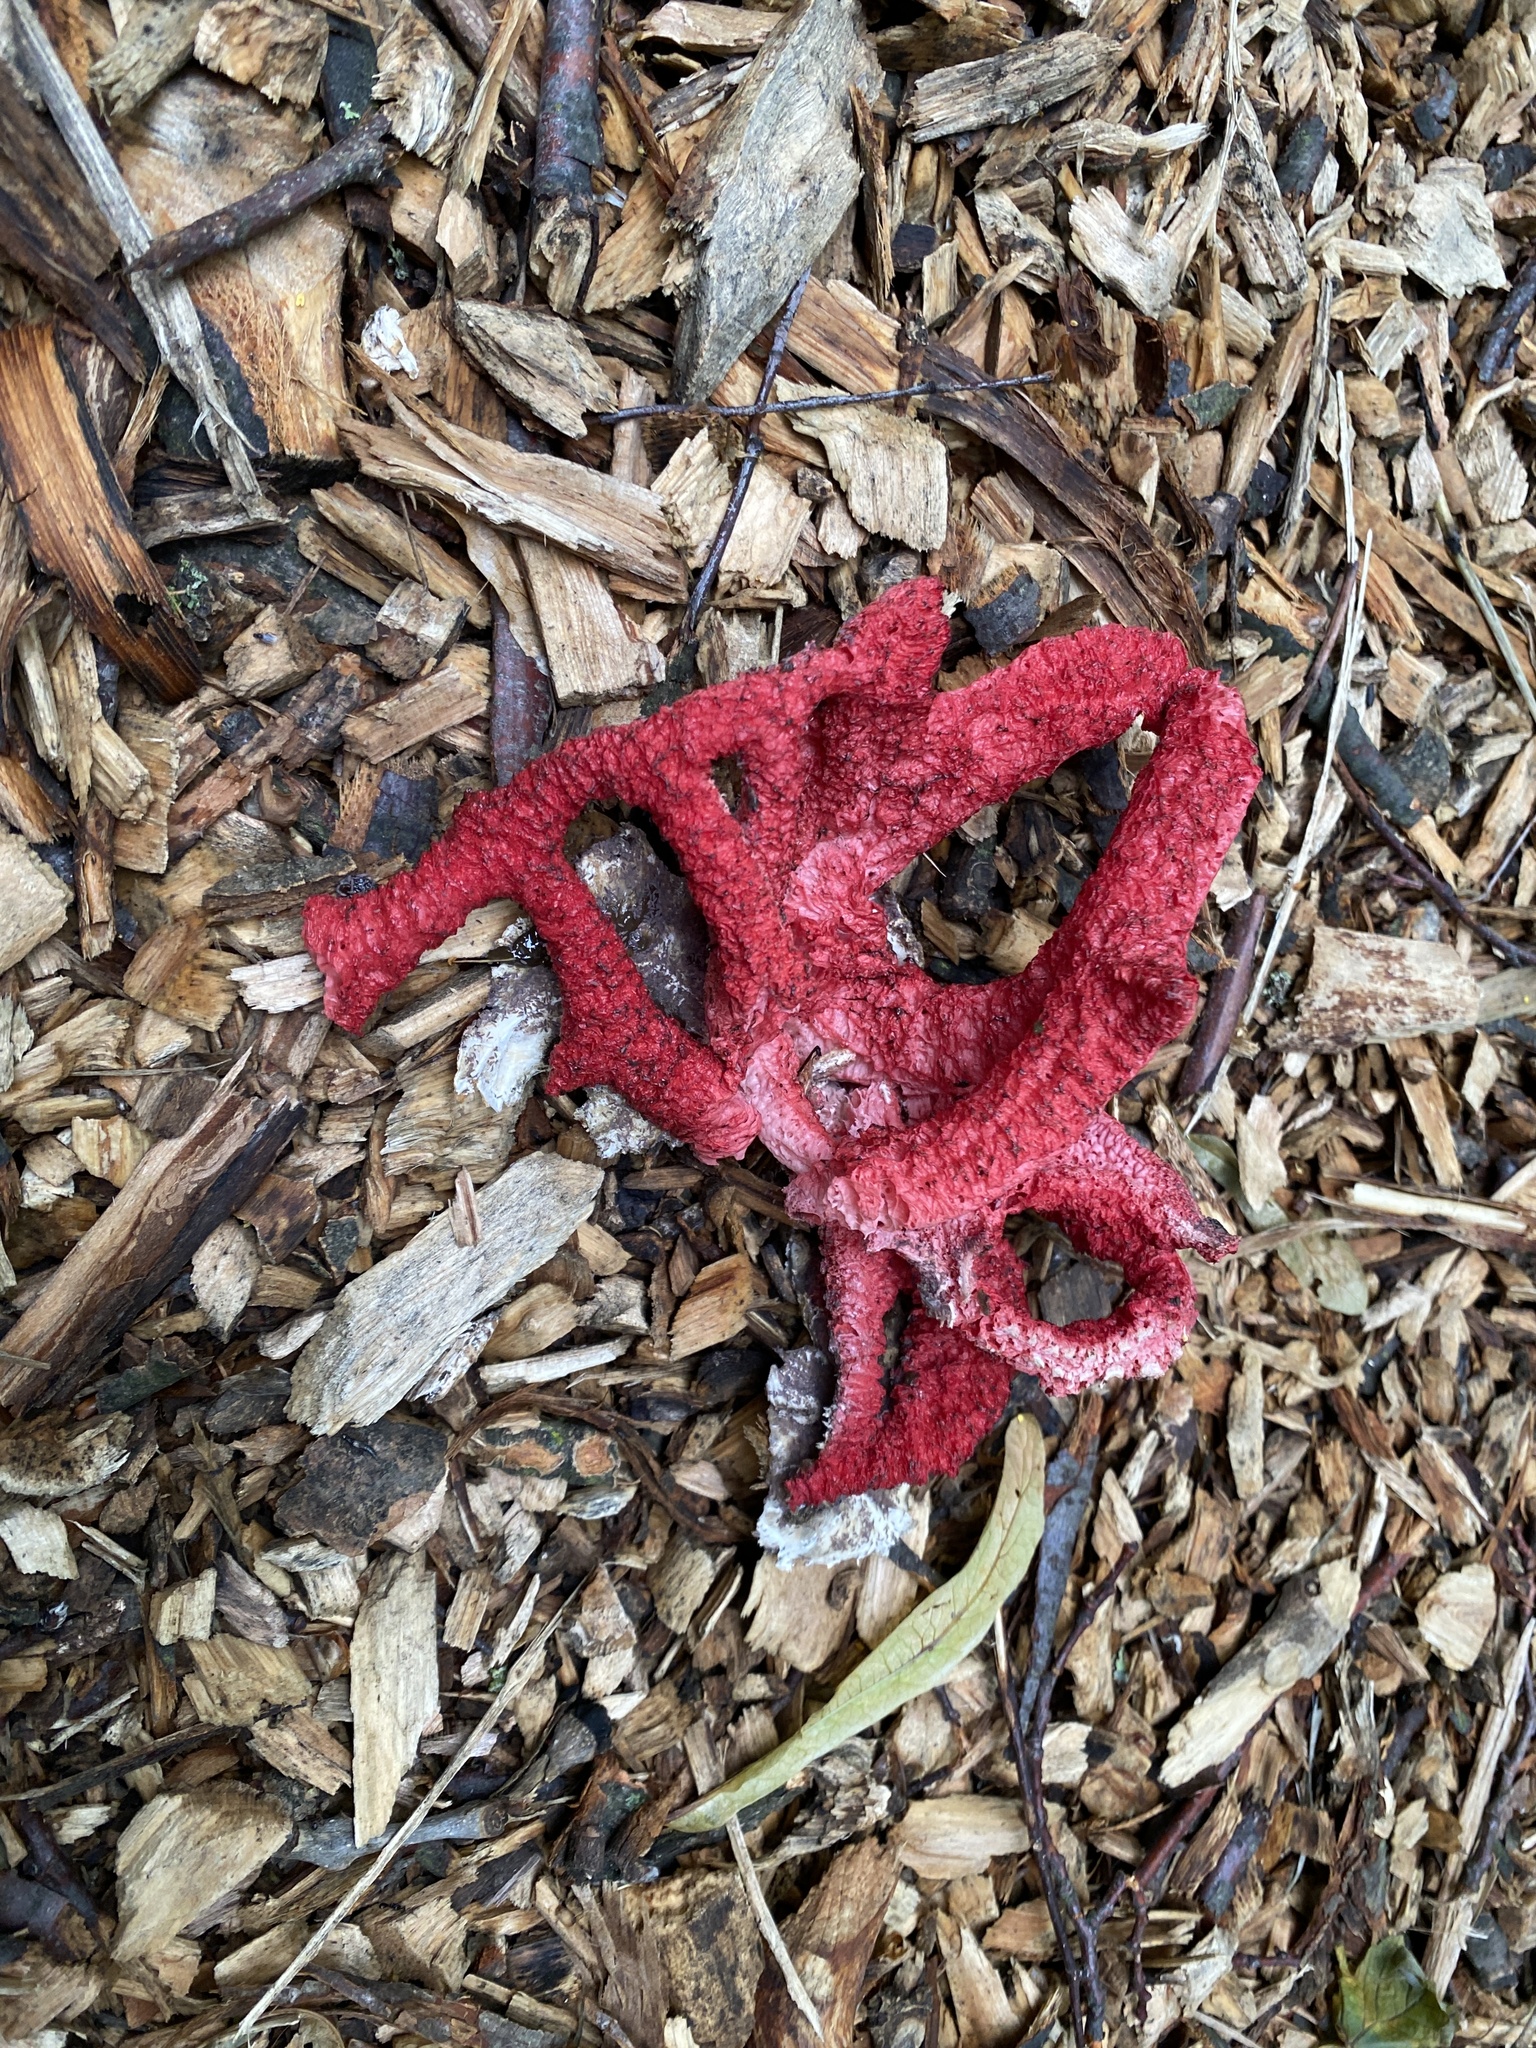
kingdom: Fungi
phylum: Basidiomycota
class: Agaricomycetes
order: Phallales
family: Phallaceae
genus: Clathrus
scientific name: Clathrus archeri
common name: Devil's fingers
